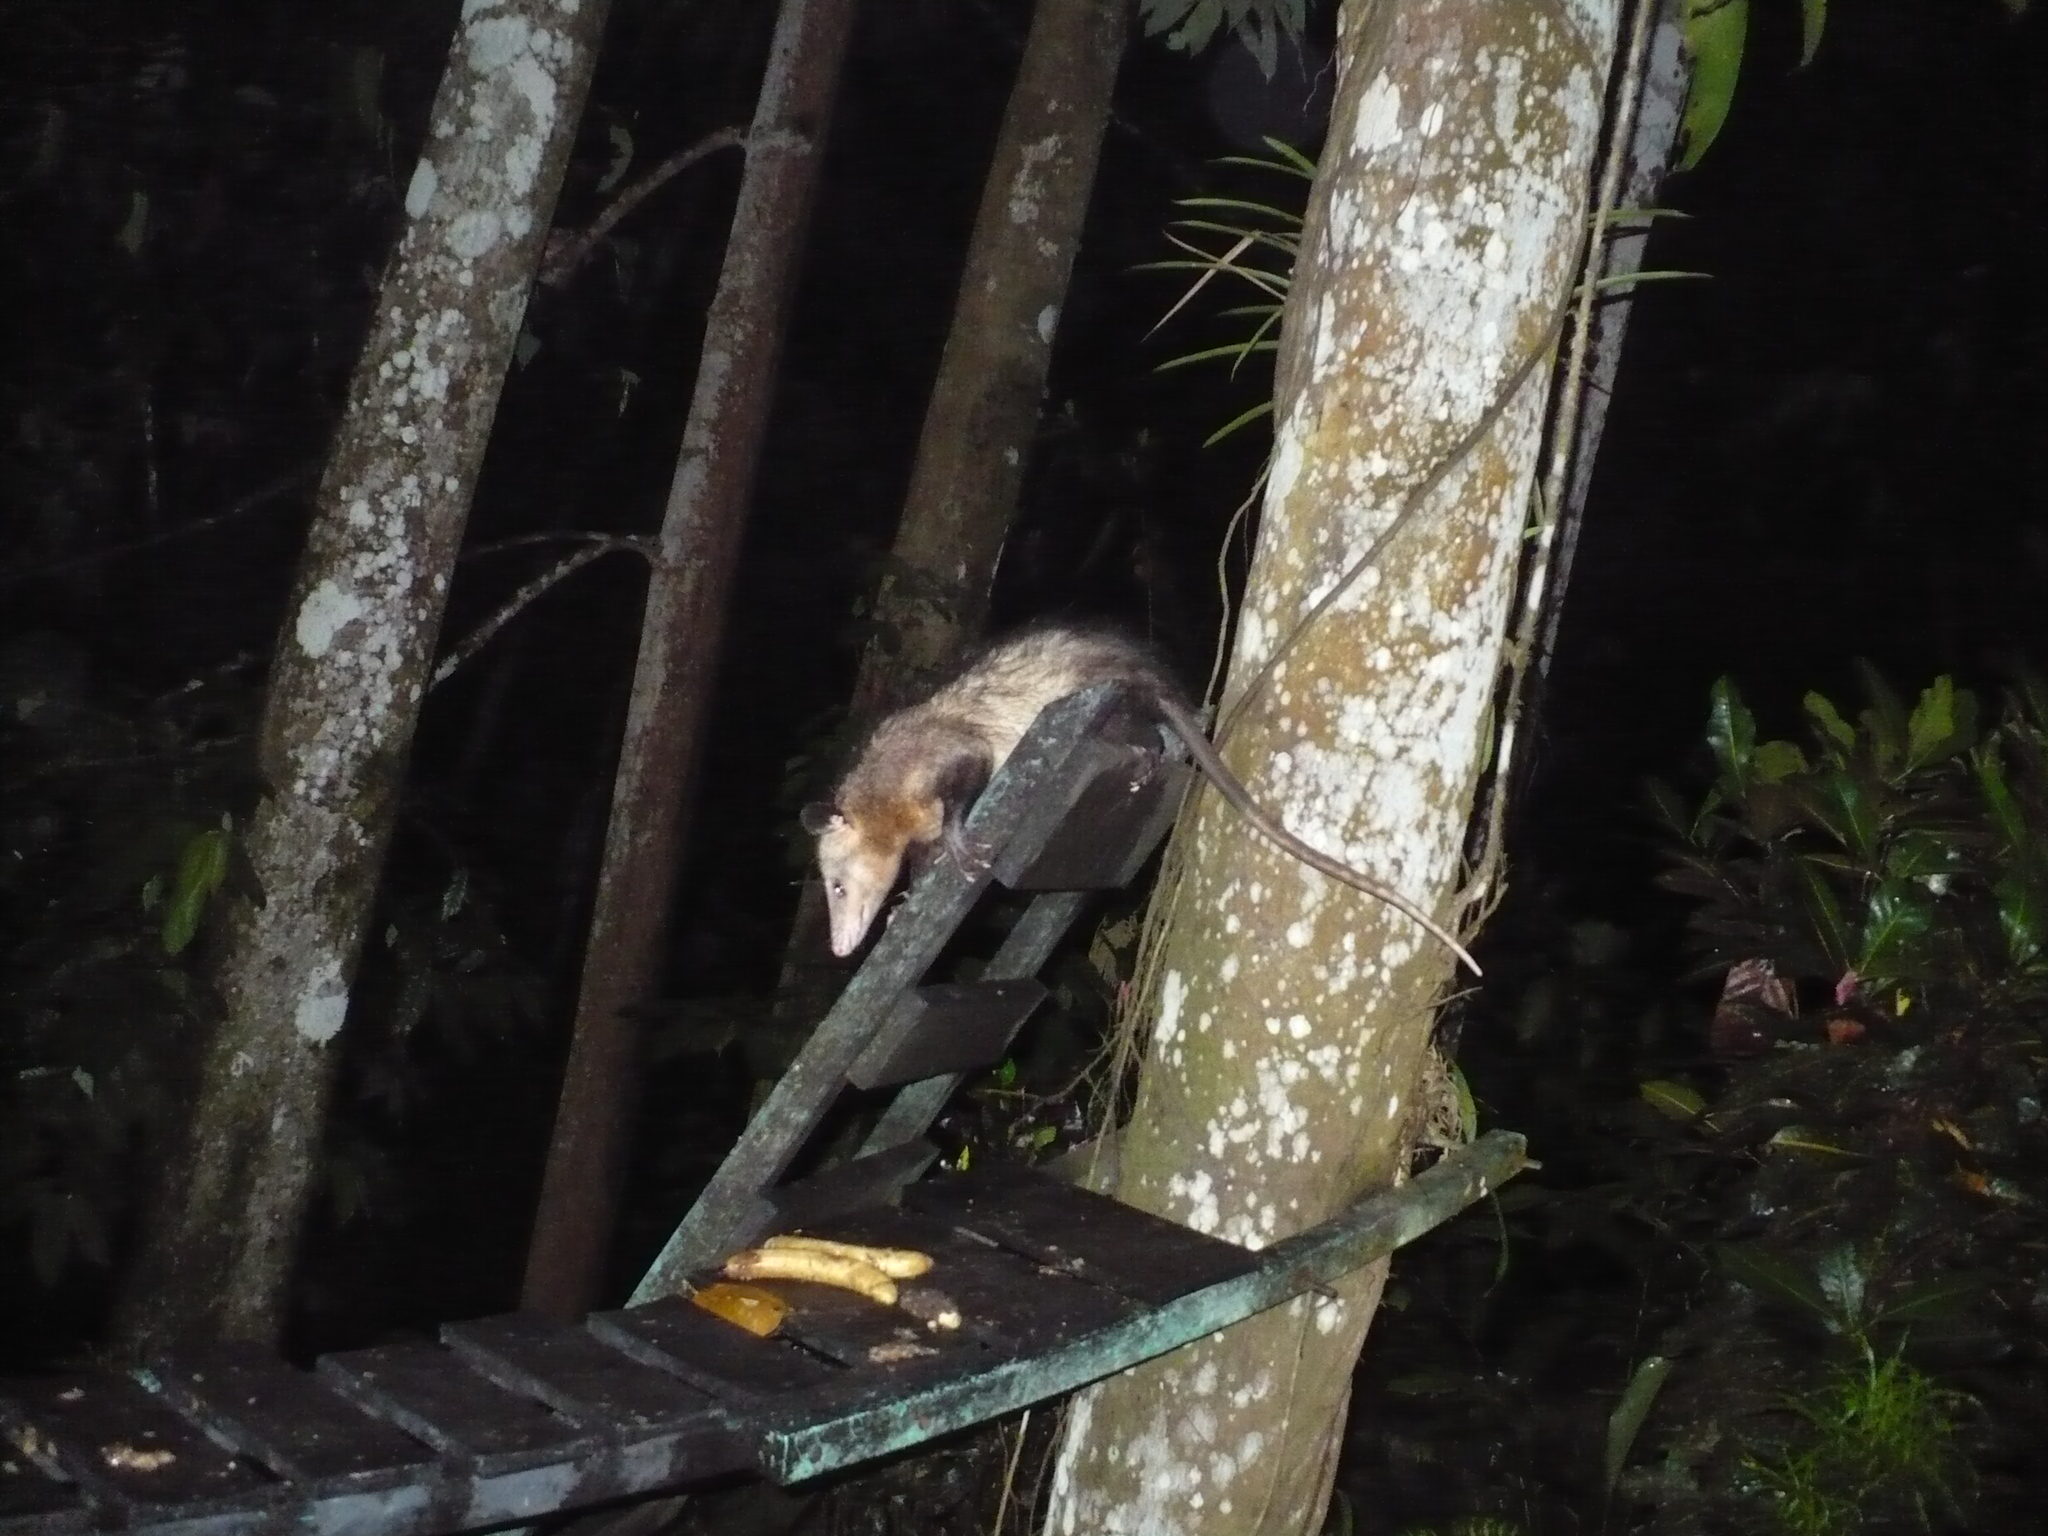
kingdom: Animalia
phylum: Chordata
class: Mammalia
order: Didelphimorphia
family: Didelphidae
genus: Didelphis
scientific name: Didelphis marsupialis
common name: Common opossum
